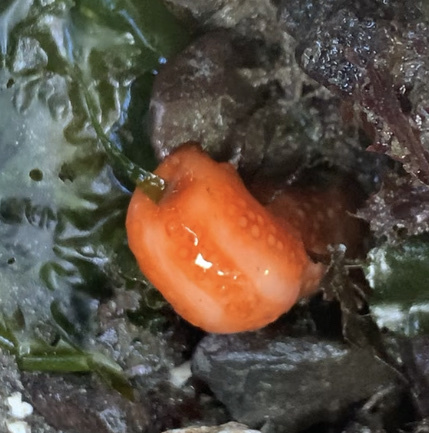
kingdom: Animalia
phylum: Echinodermata
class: Holothuroidea
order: Dendrochirotida
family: Cucumariidae
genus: Cucumaria
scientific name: Cucumaria miniata
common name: Orange sea cucumber
